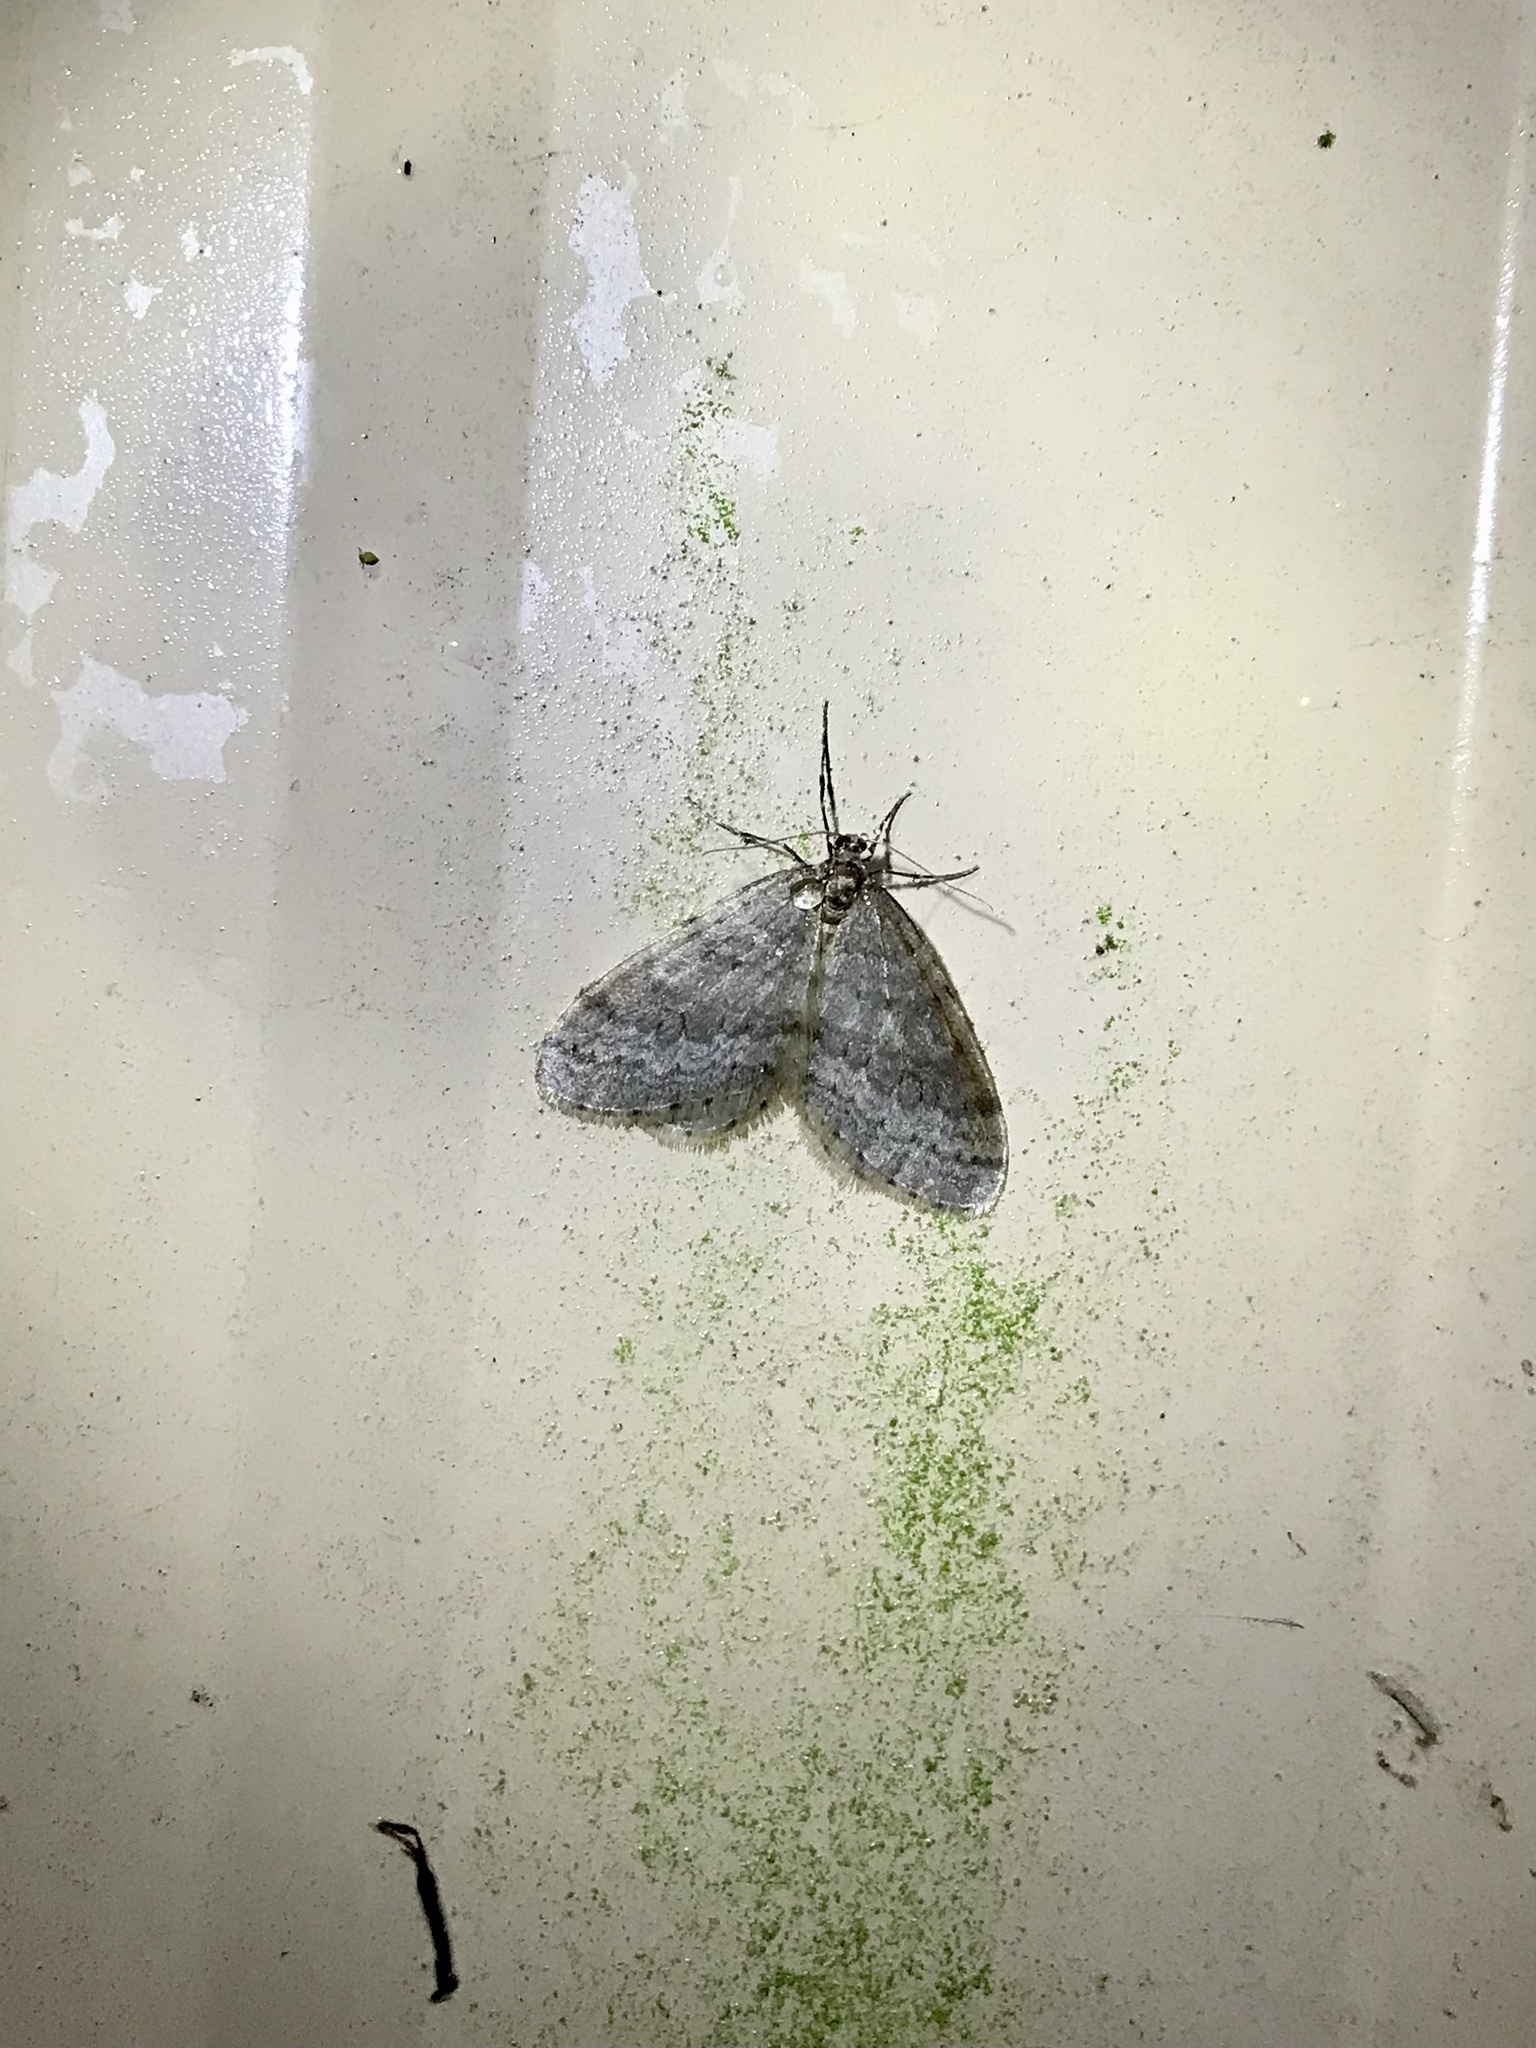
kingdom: Animalia
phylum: Arthropoda
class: Insecta
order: Lepidoptera
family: Geometridae
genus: Operophtera
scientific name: Operophtera bruceata
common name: Bruce spanworm
